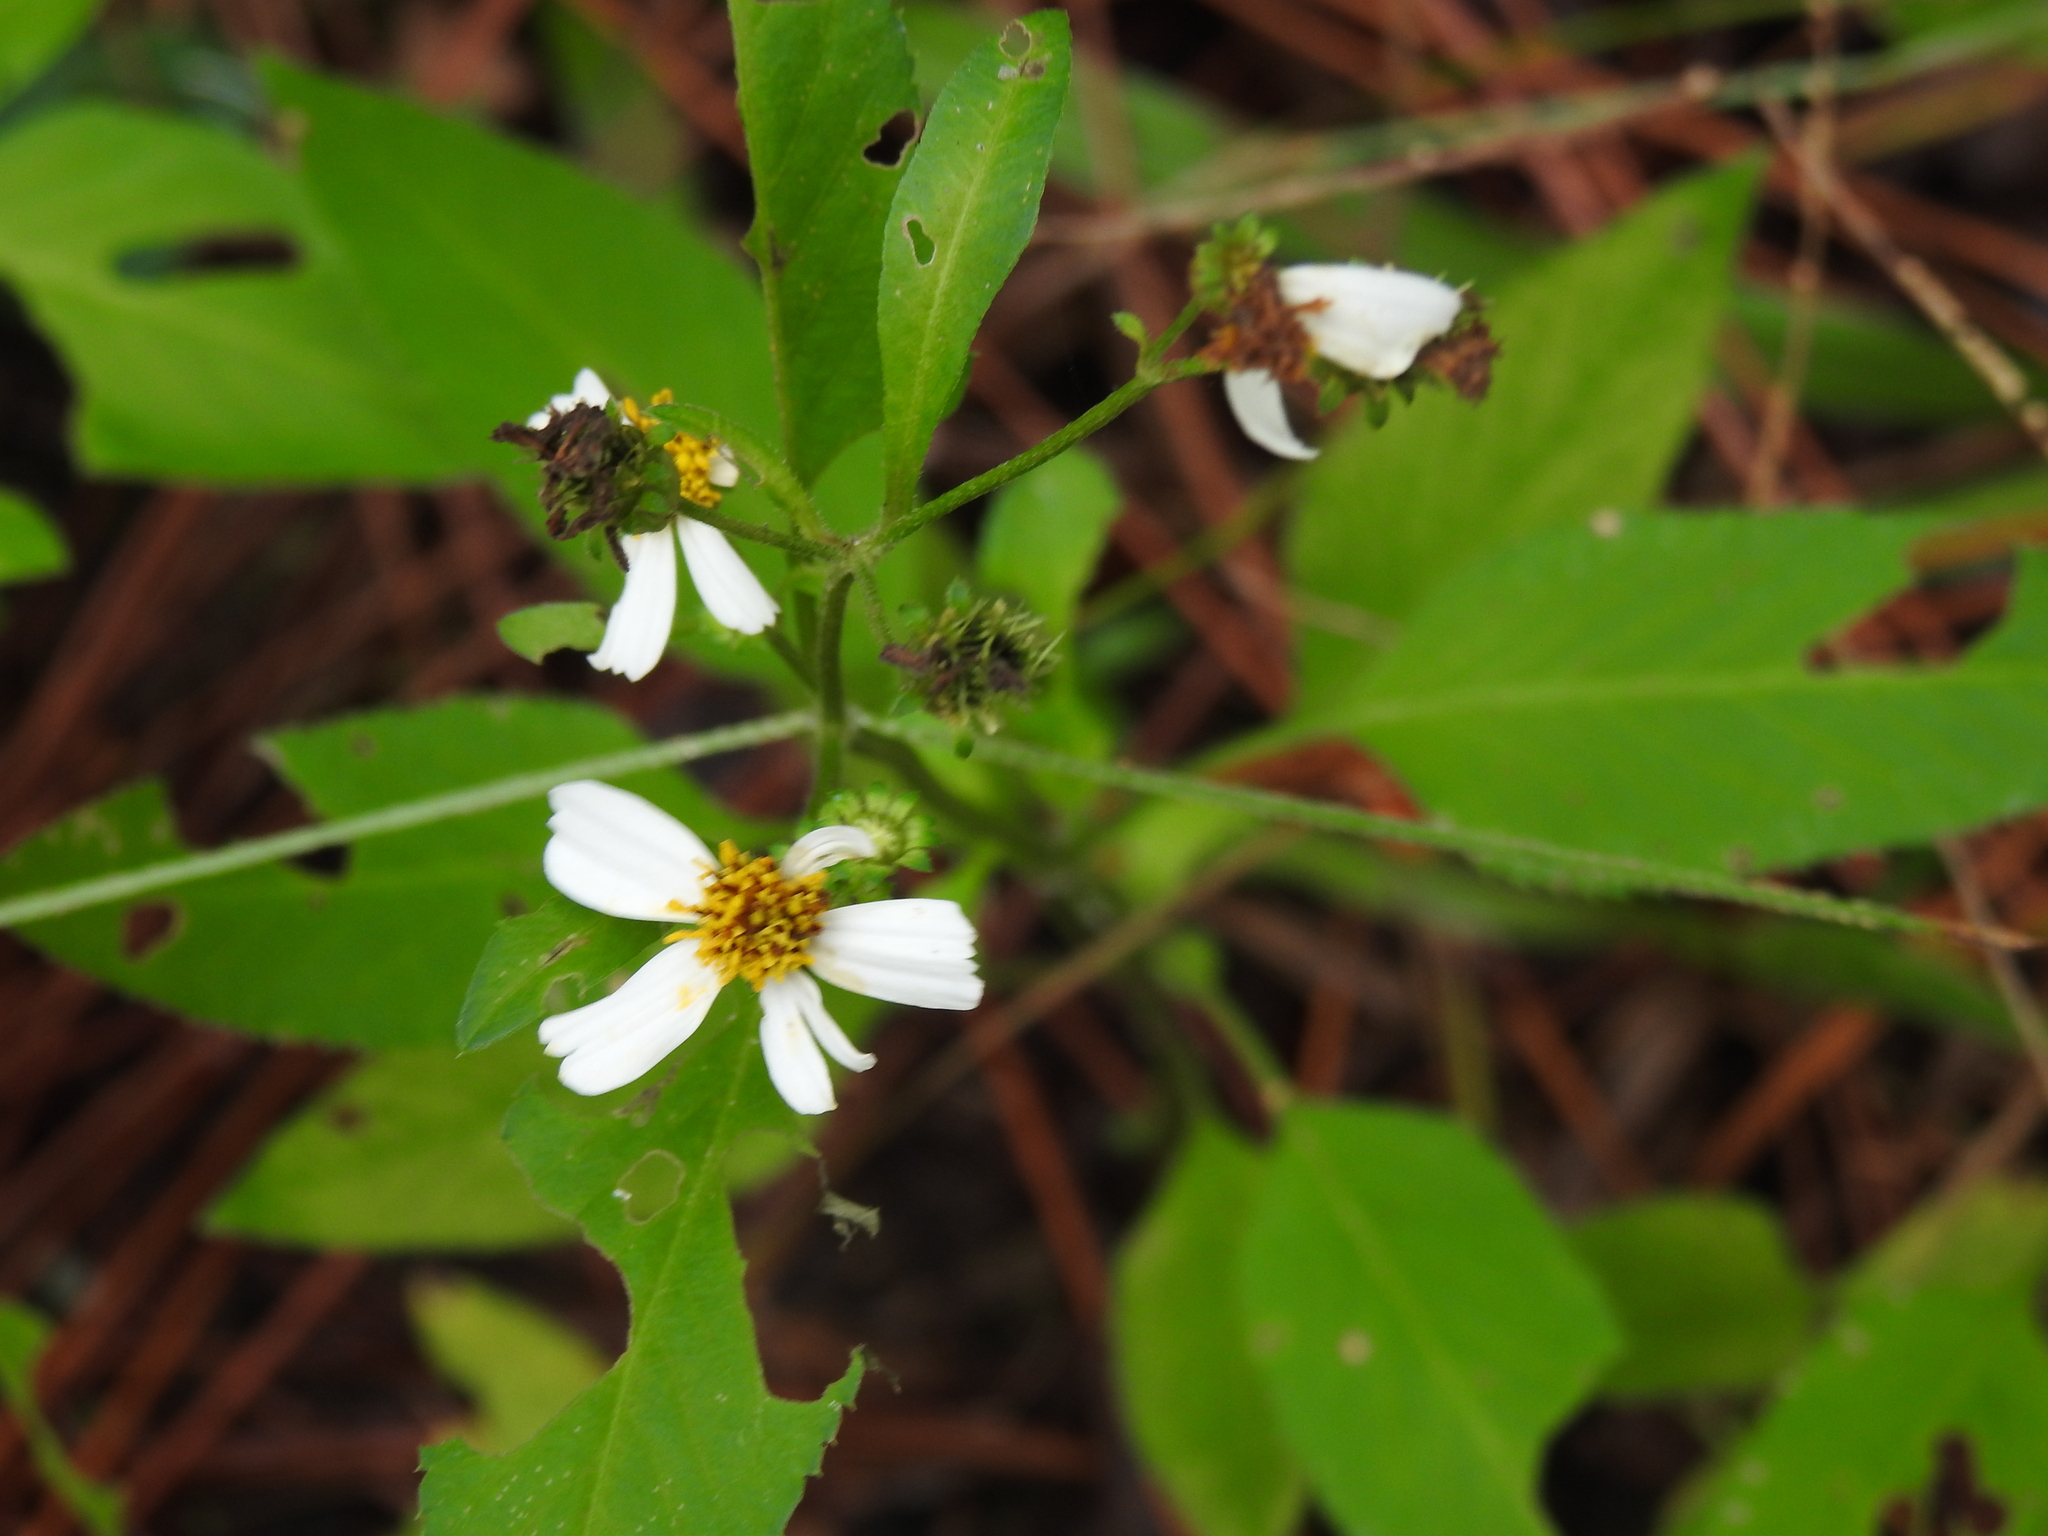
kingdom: Plantae
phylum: Tracheophyta
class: Magnoliopsida
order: Asterales
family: Asteraceae
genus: Bidens
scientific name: Bidens alba
